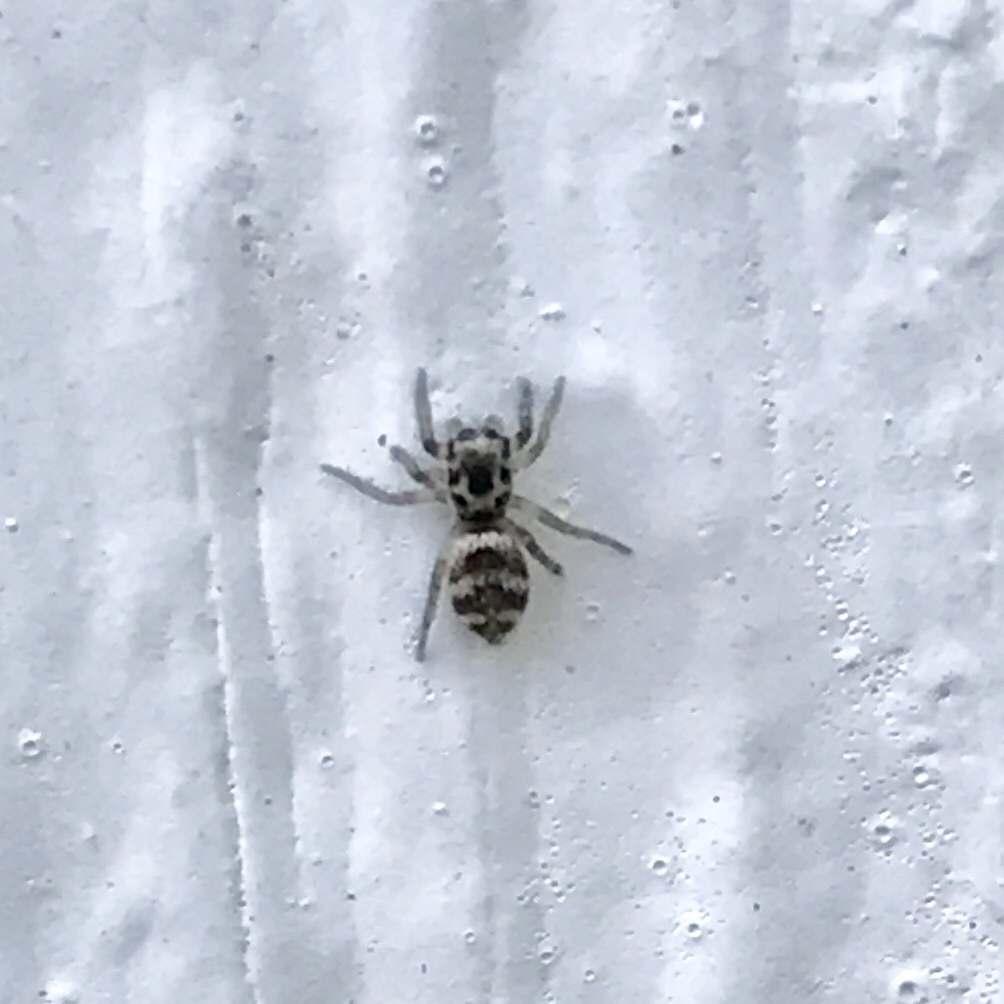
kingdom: Animalia
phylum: Arthropoda
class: Arachnida
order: Araneae
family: Salticidae
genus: Salticus
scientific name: Salticus scenicus
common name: Zebra jumper
